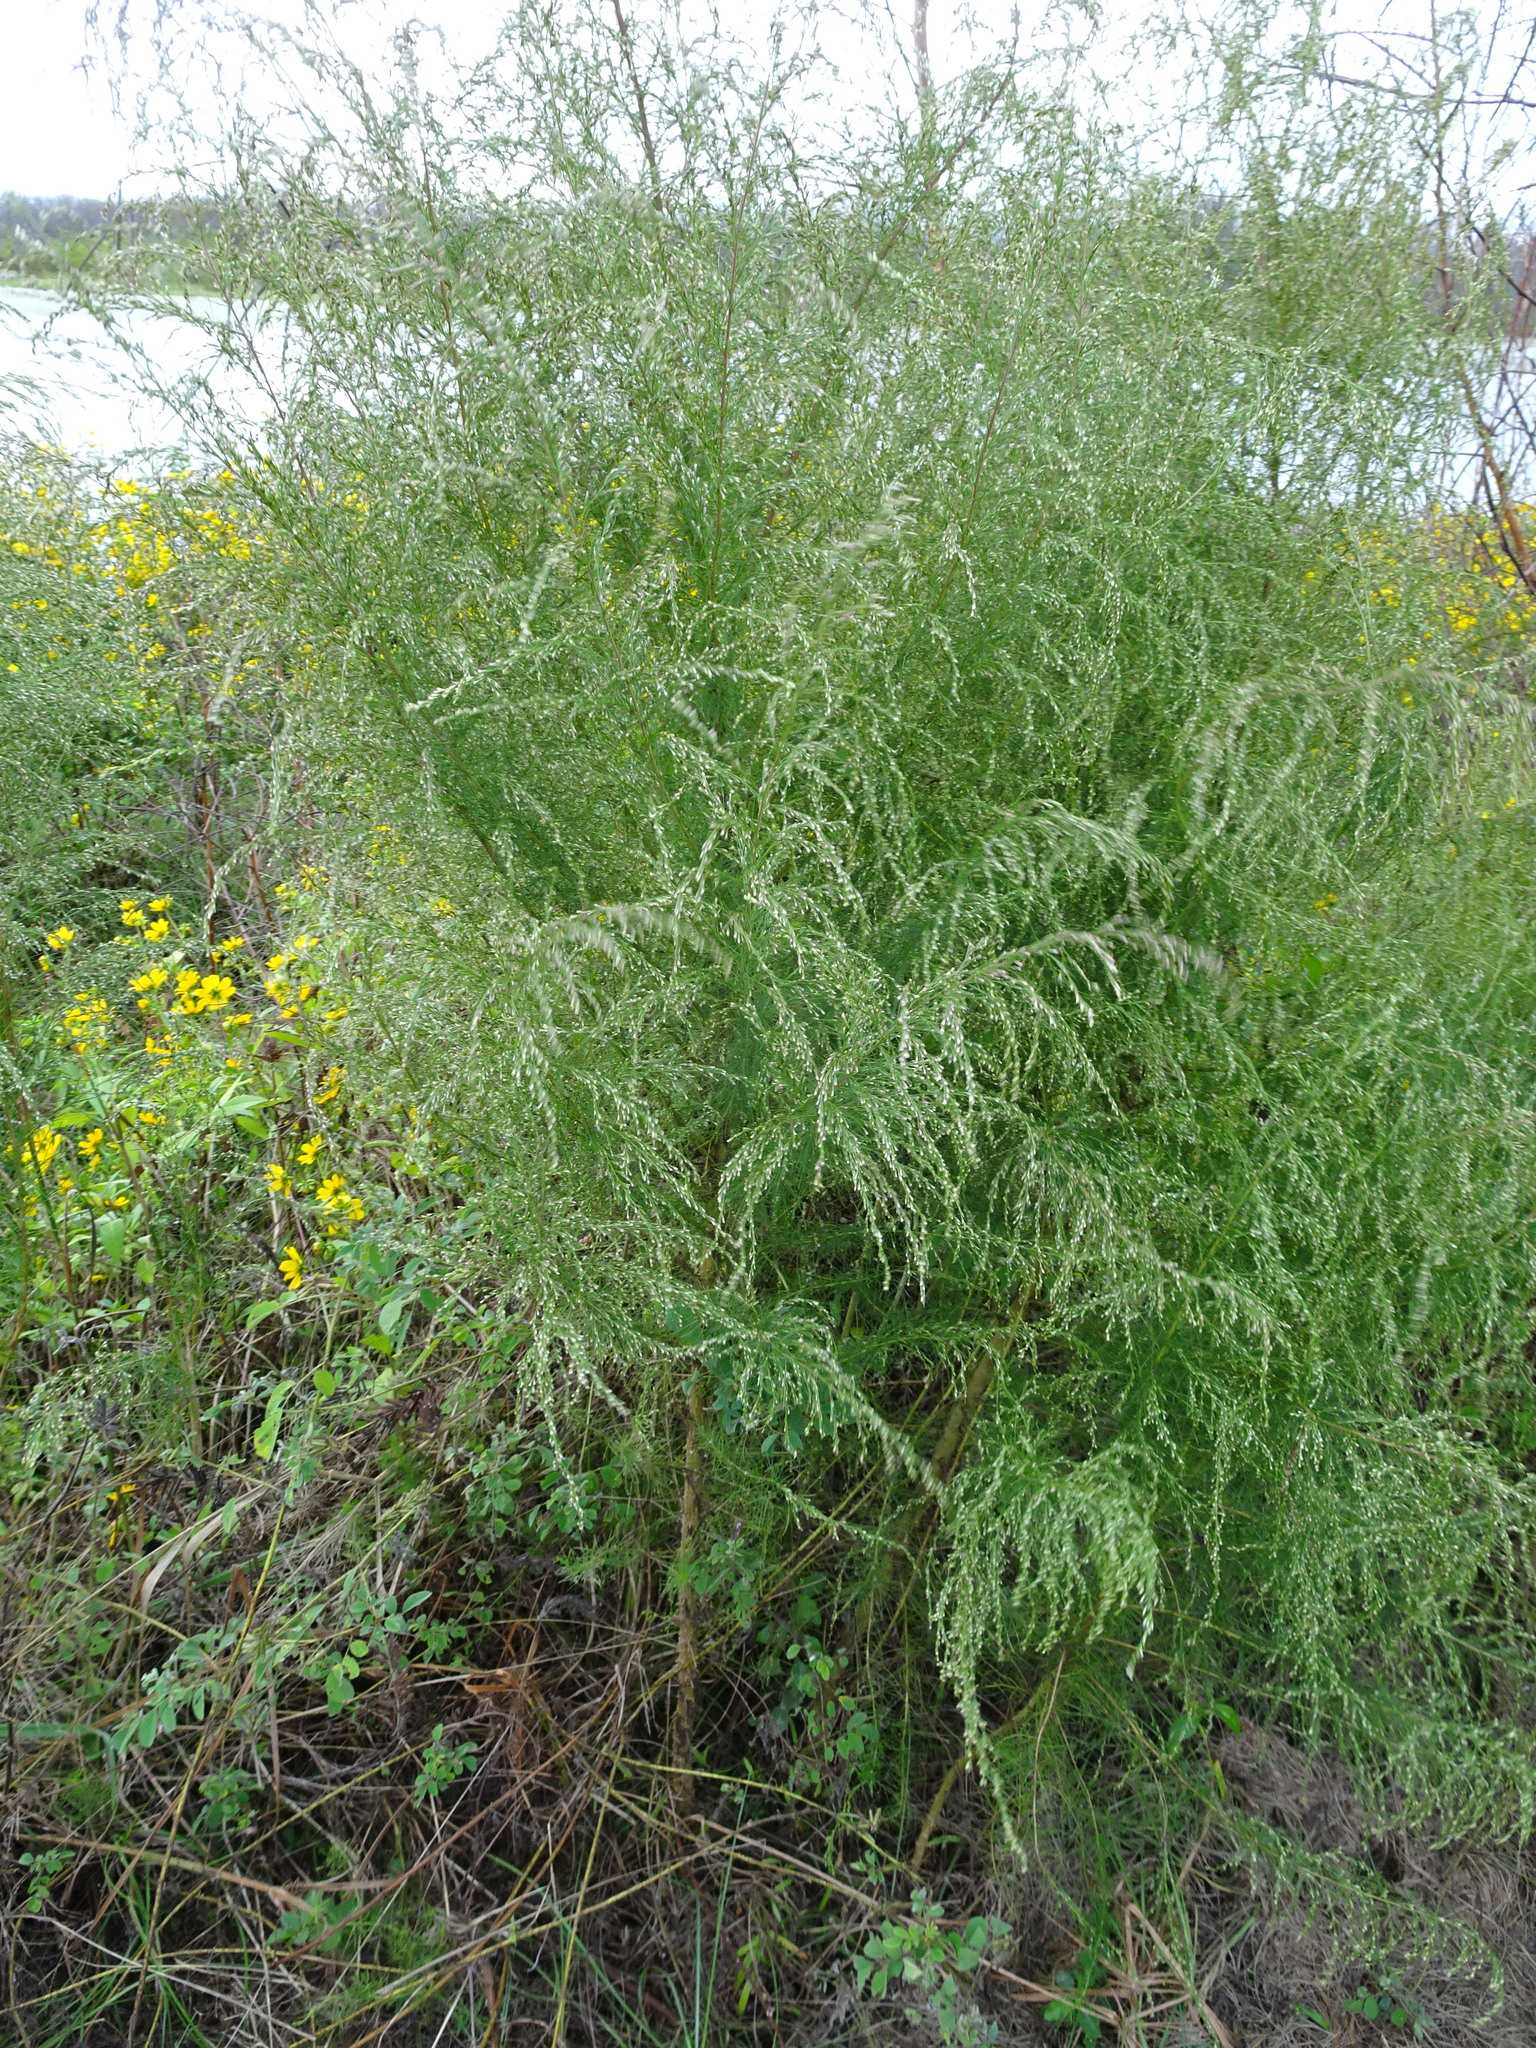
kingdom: Plantae
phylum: Tracheophyta
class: Magnoliopsida
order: Asterales
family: Asteraceae
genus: Eupatorium
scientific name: Eupatorium capillifolium
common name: Dog-fennel
